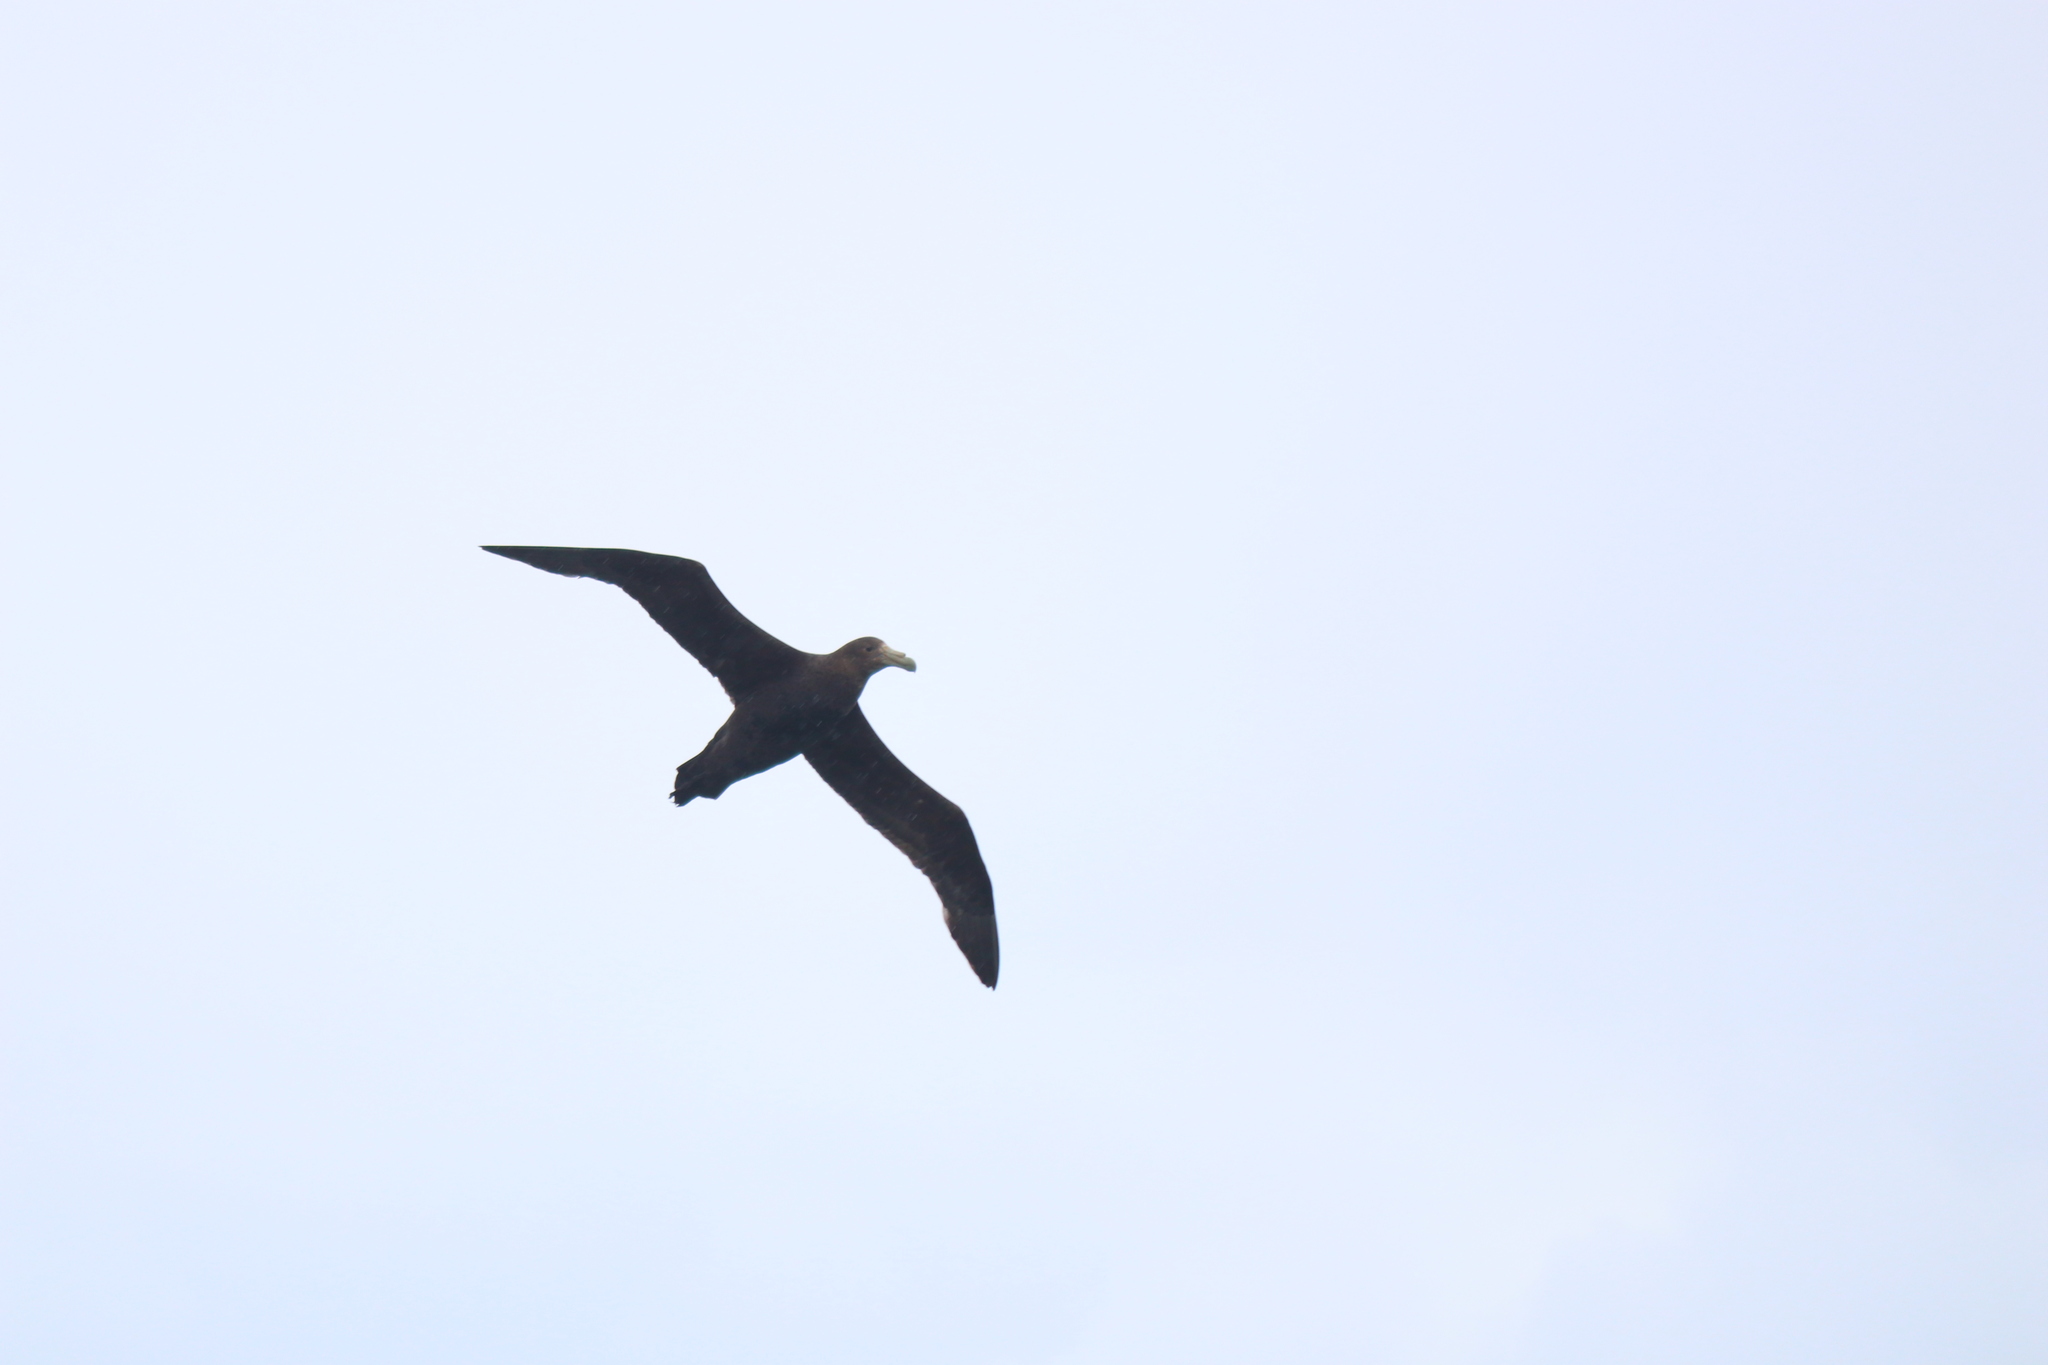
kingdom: Animalia
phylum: Chordata
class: Aves
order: Procellariiformes
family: Procellariidae
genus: Macronectes
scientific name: Macronectes giganteus
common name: Southern giant petrel
